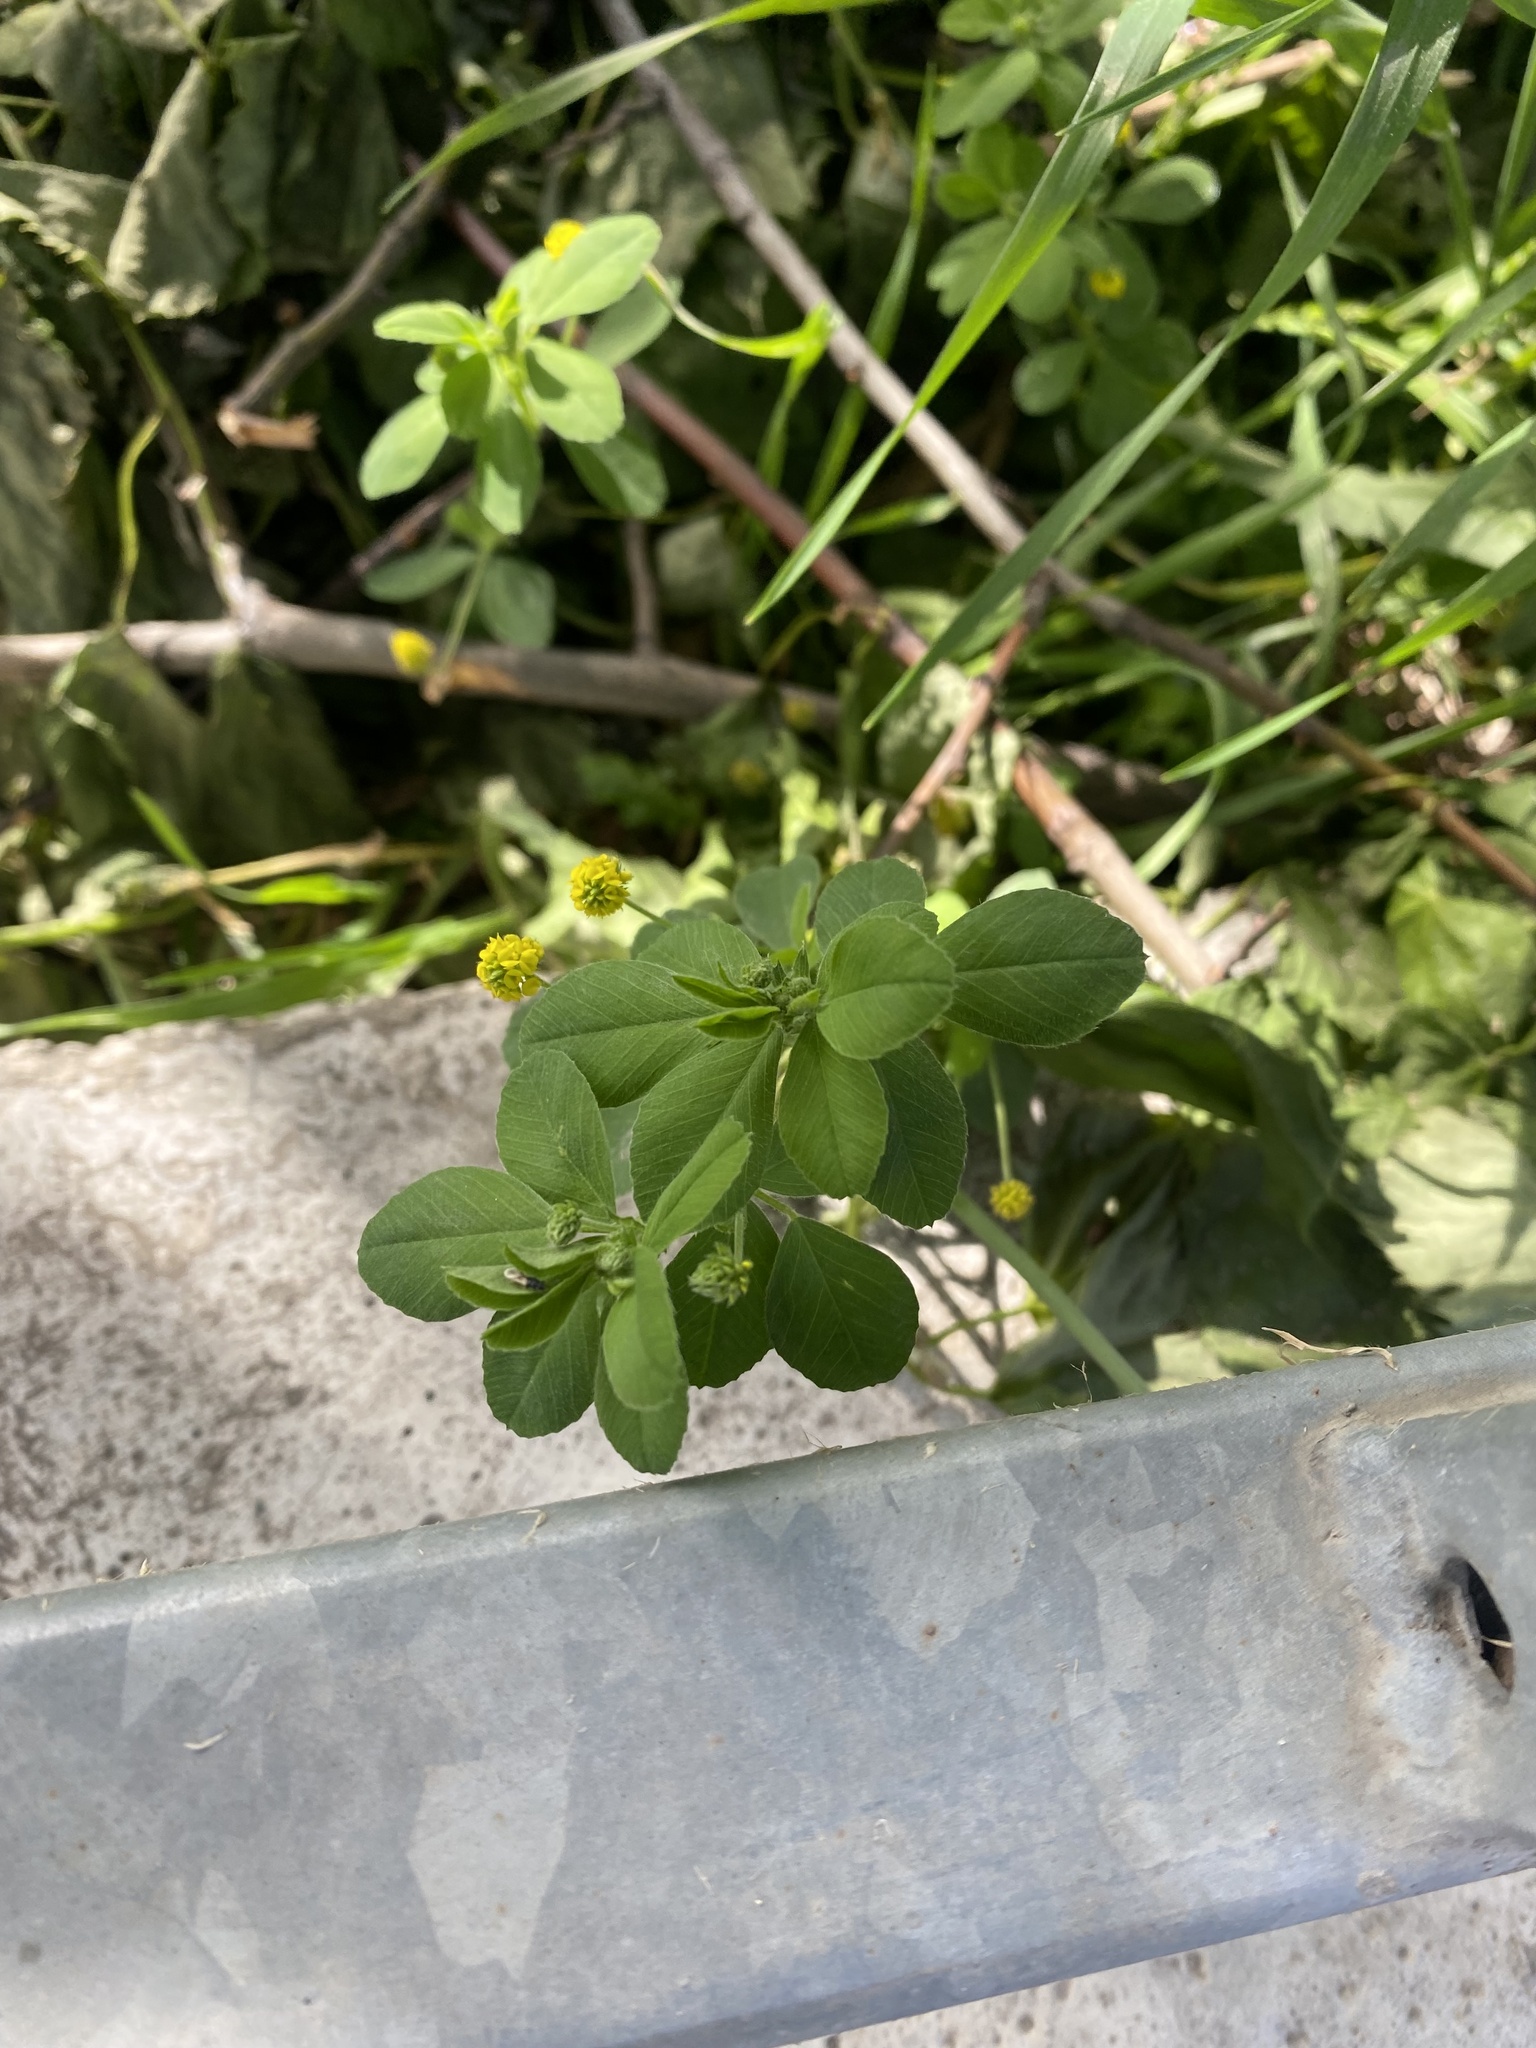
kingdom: Plantae
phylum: Tracheophyta
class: Magnoliopsida
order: Fabales
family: Fabaceae
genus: Medicago
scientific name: Medicago lupulina
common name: Black medick
